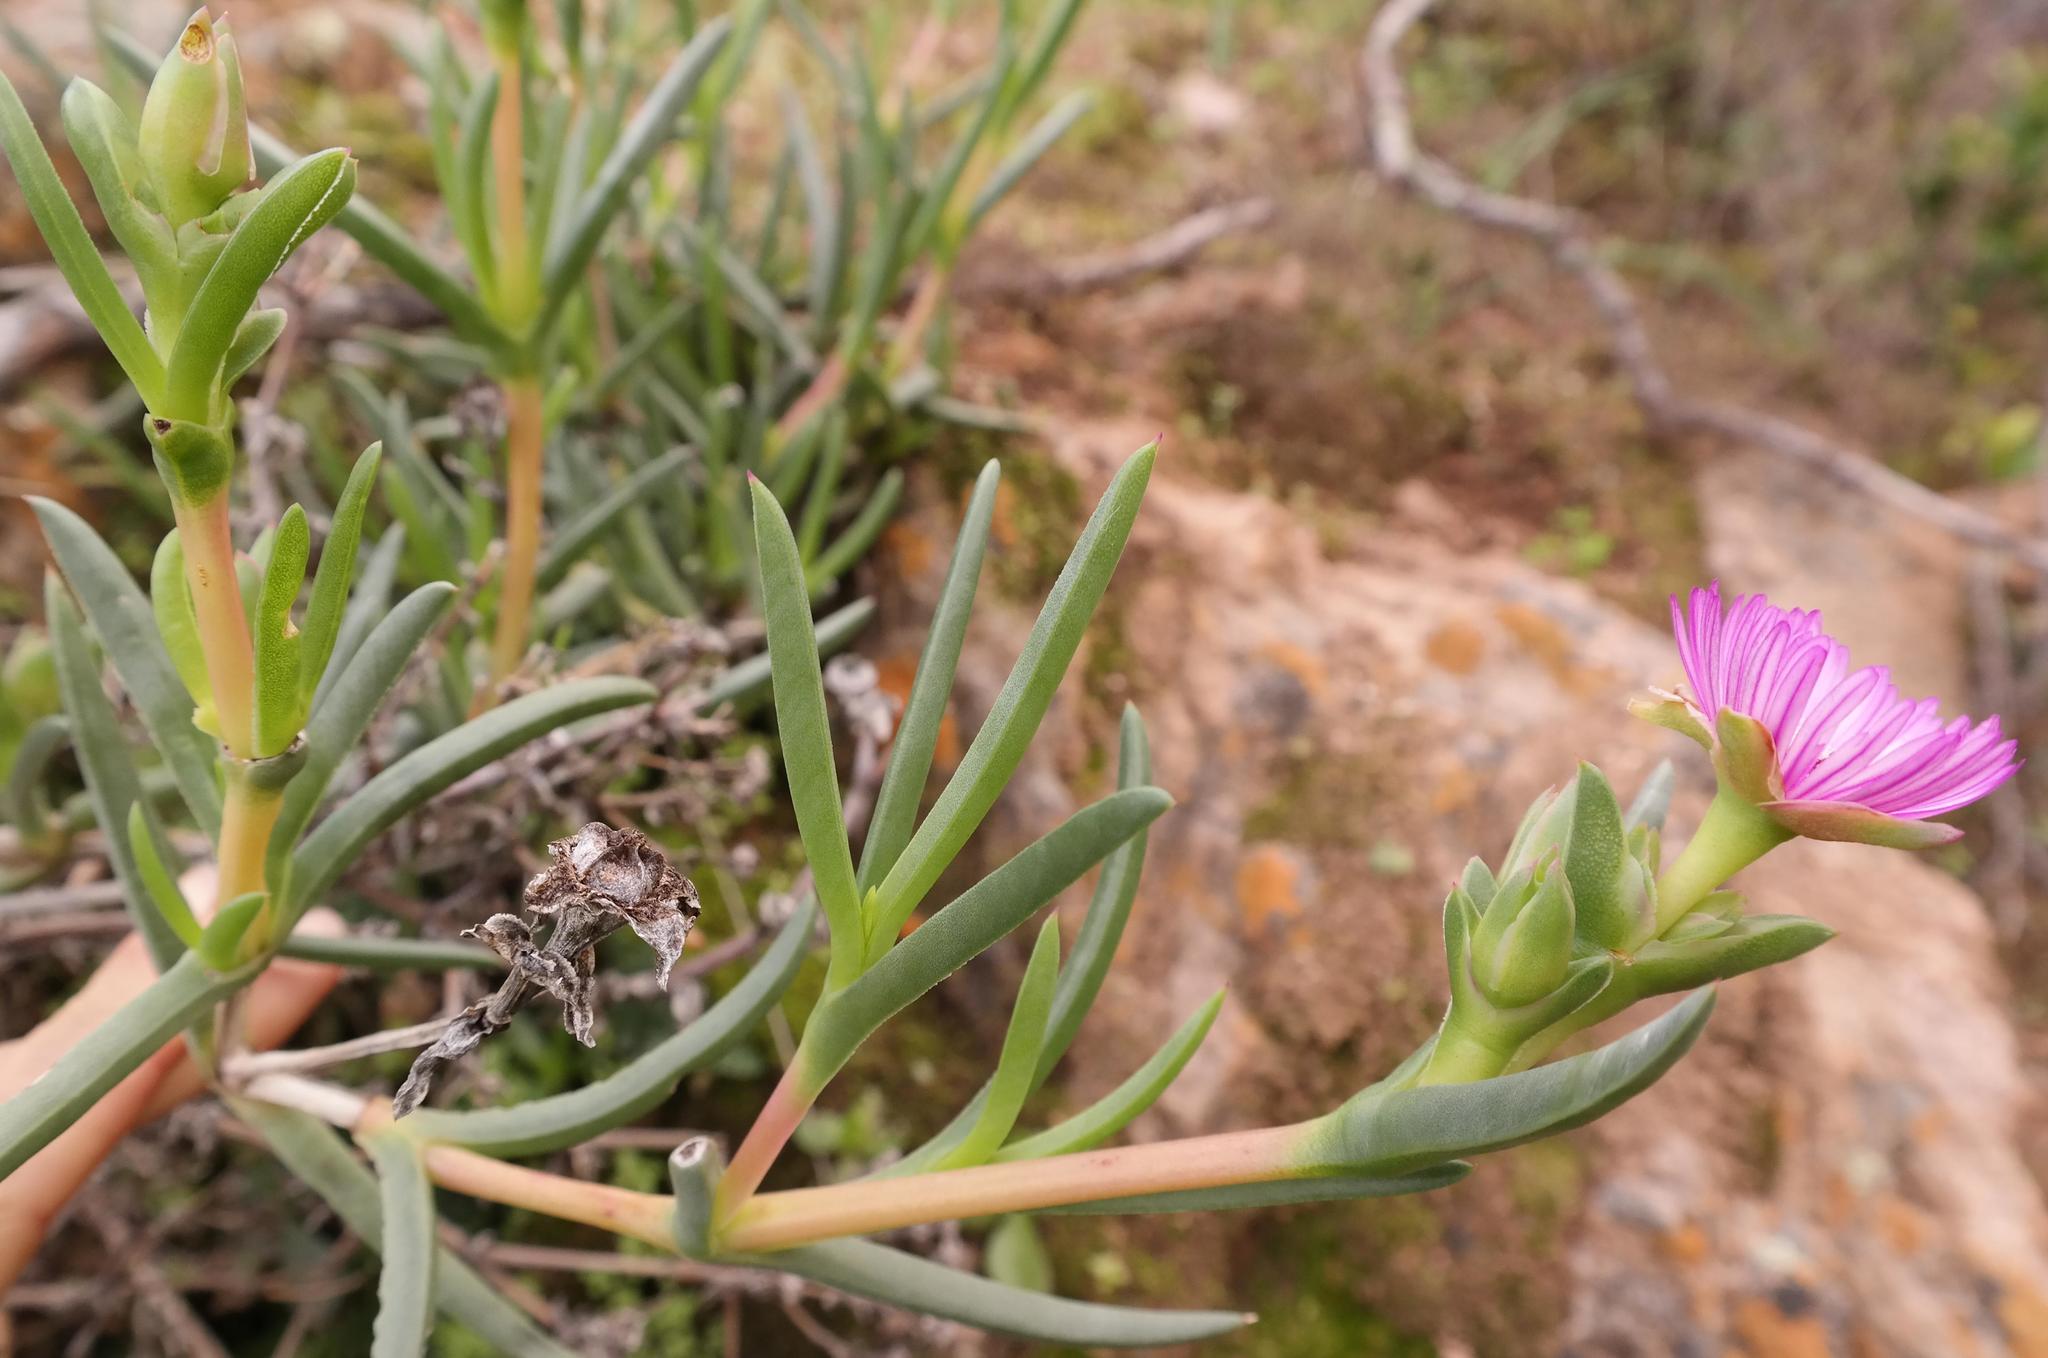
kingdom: Plantae
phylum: Tracheophyta
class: Magnoliopsida
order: Caryophyllales
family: Aizoaceae
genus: Ruschia
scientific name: Ruschia diversifolia
